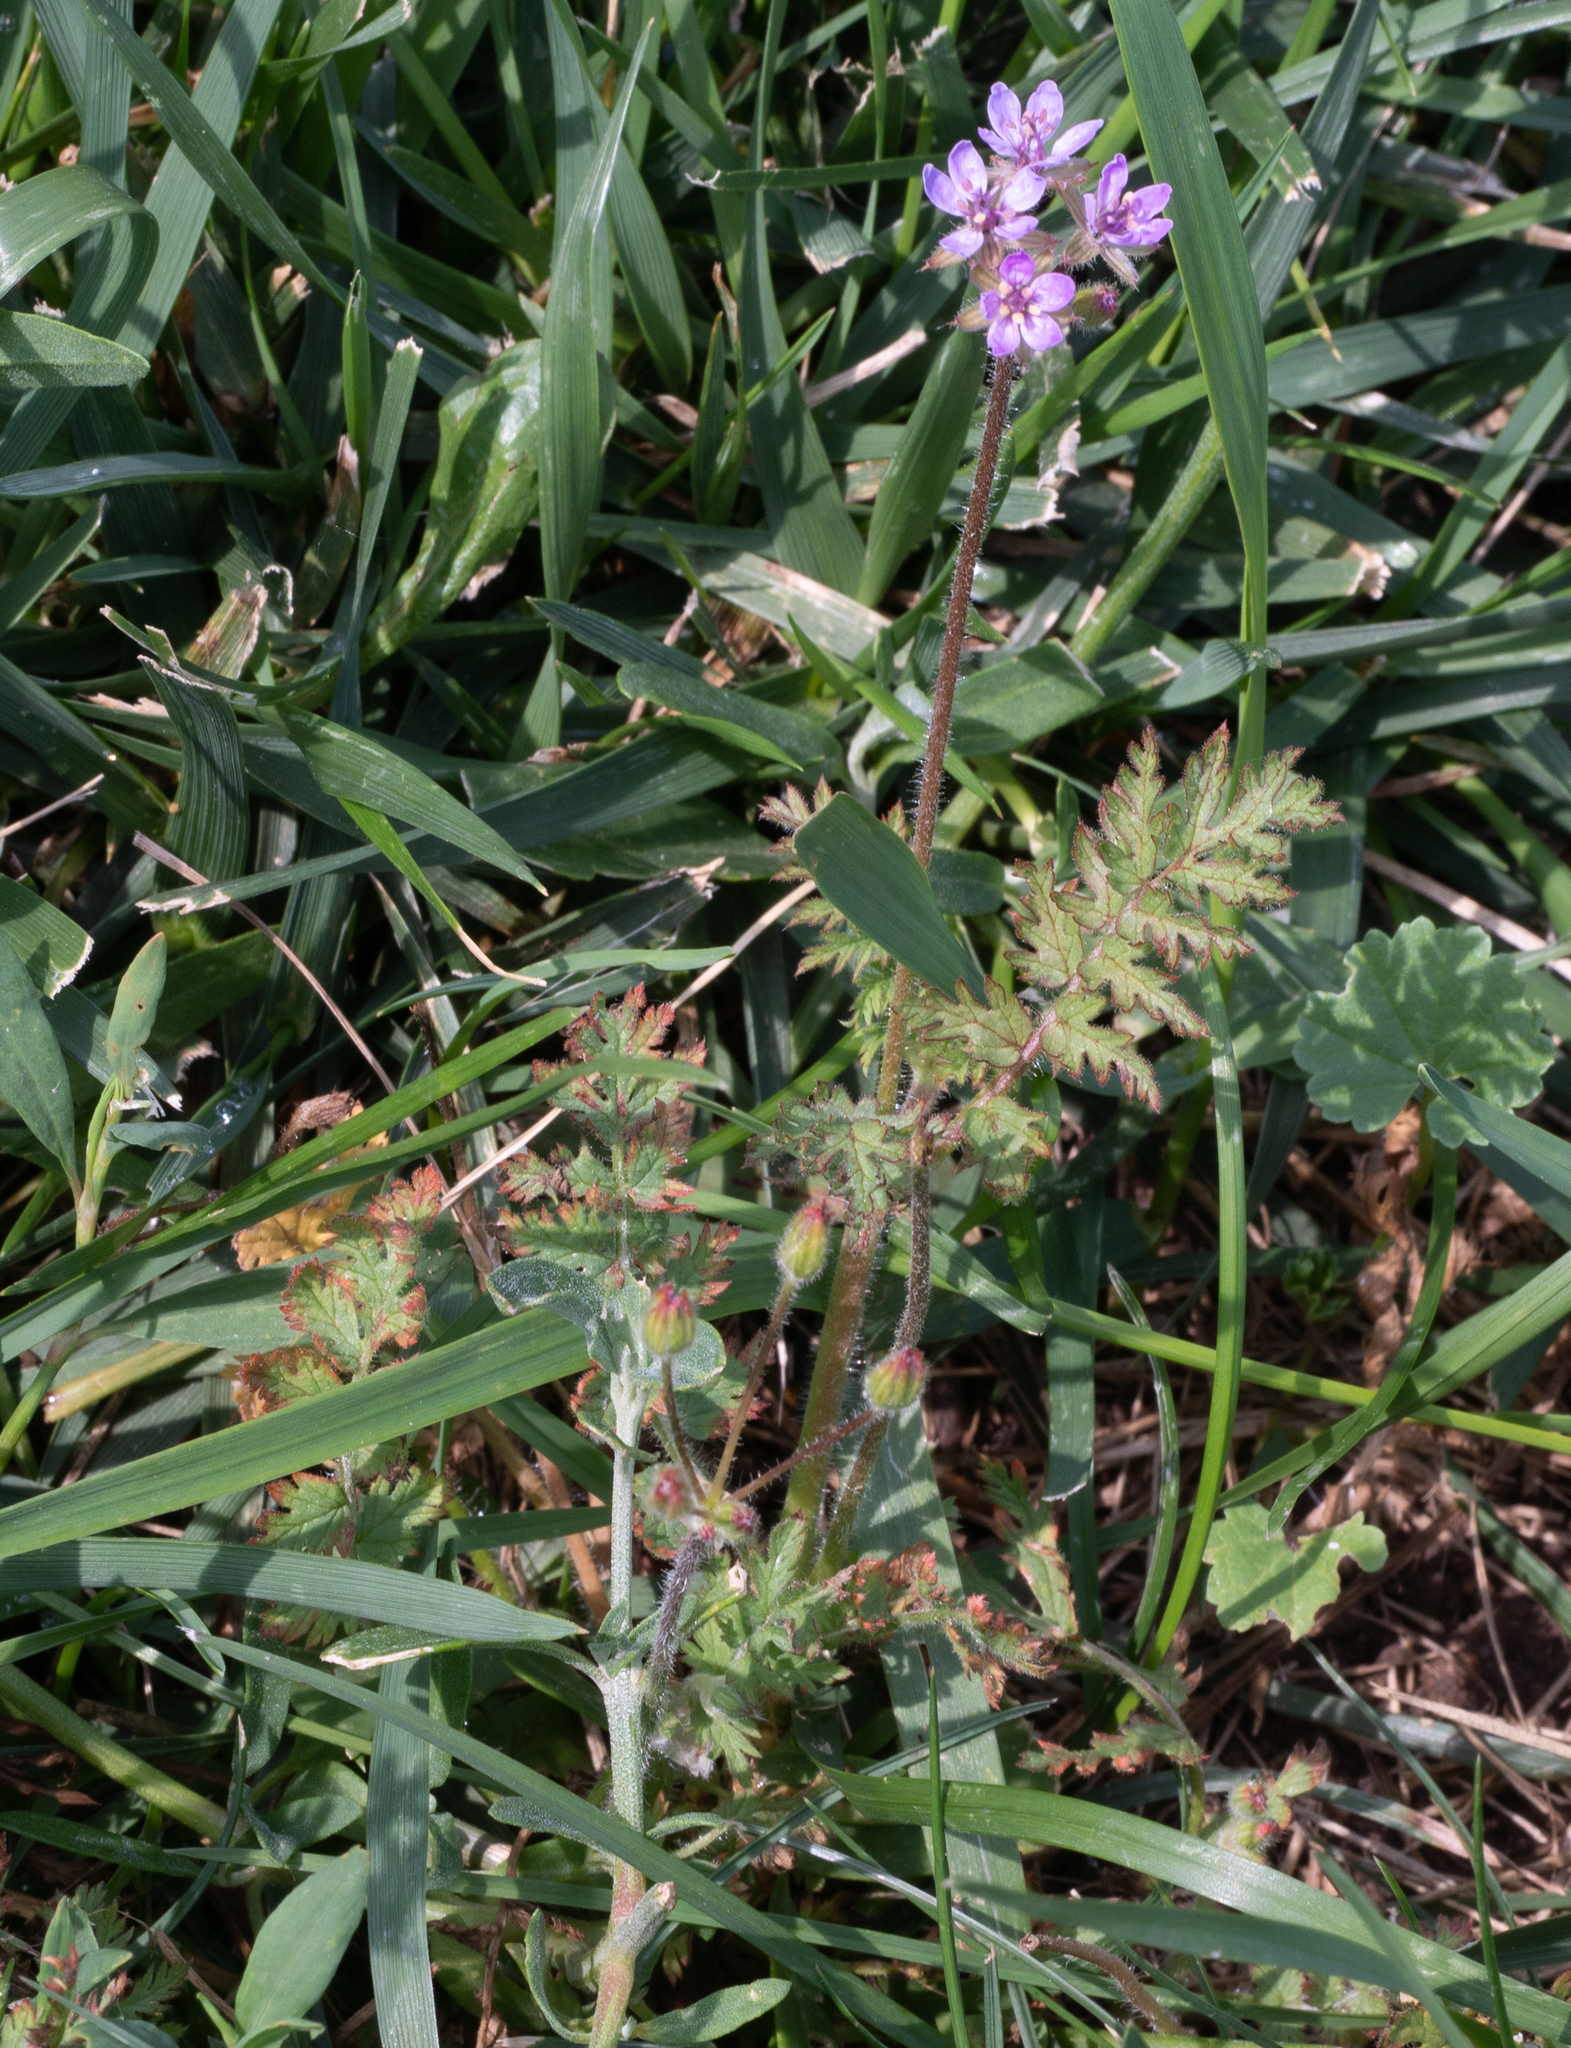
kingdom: Plantae
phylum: Tracheophyta
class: Magnoliopsida
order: Geraniales
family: Geraniaceae
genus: Erodium
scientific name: Erodium cicutarium
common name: Common stork's-bill
